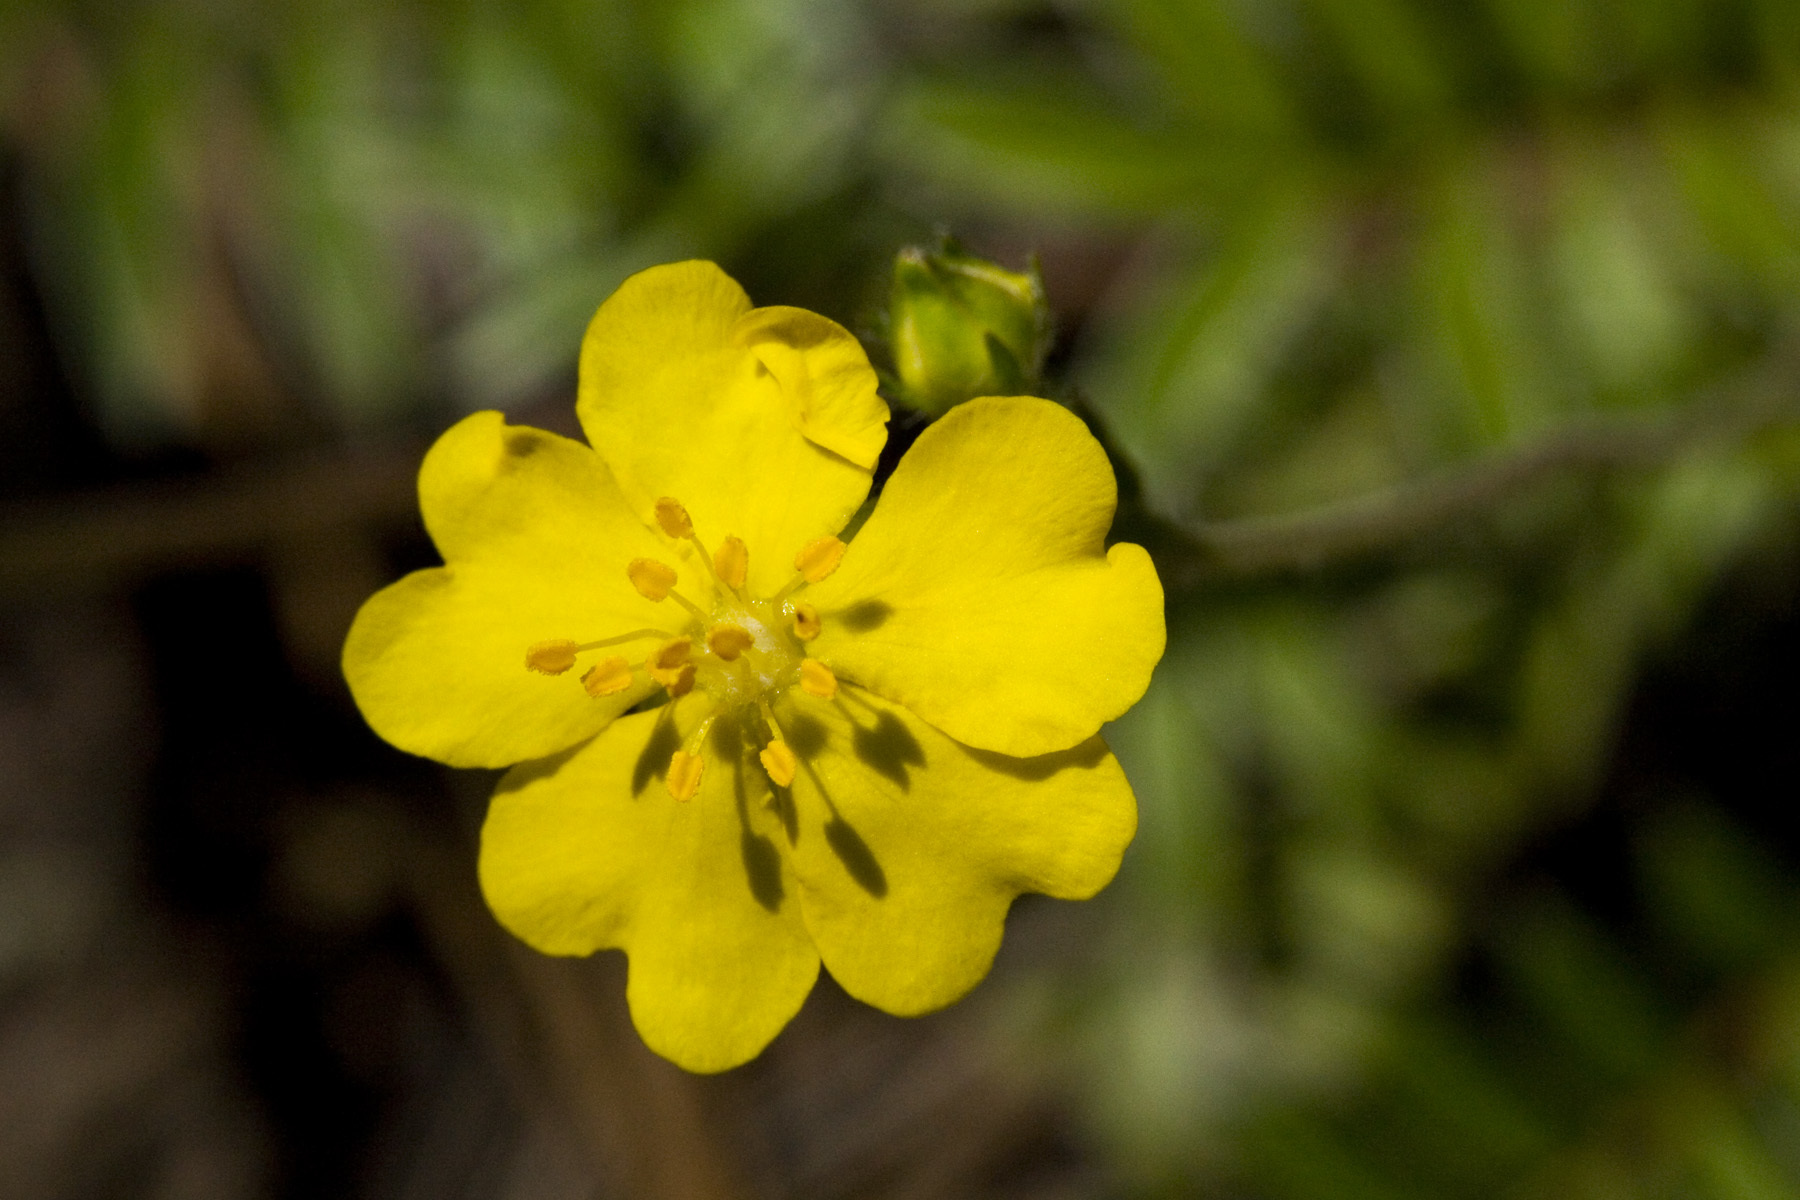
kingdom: Plantae
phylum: Tracheophyta
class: Magnoliopsida
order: Rosales
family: Rosaceae
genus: Potentilla
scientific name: Potentilla crinita
